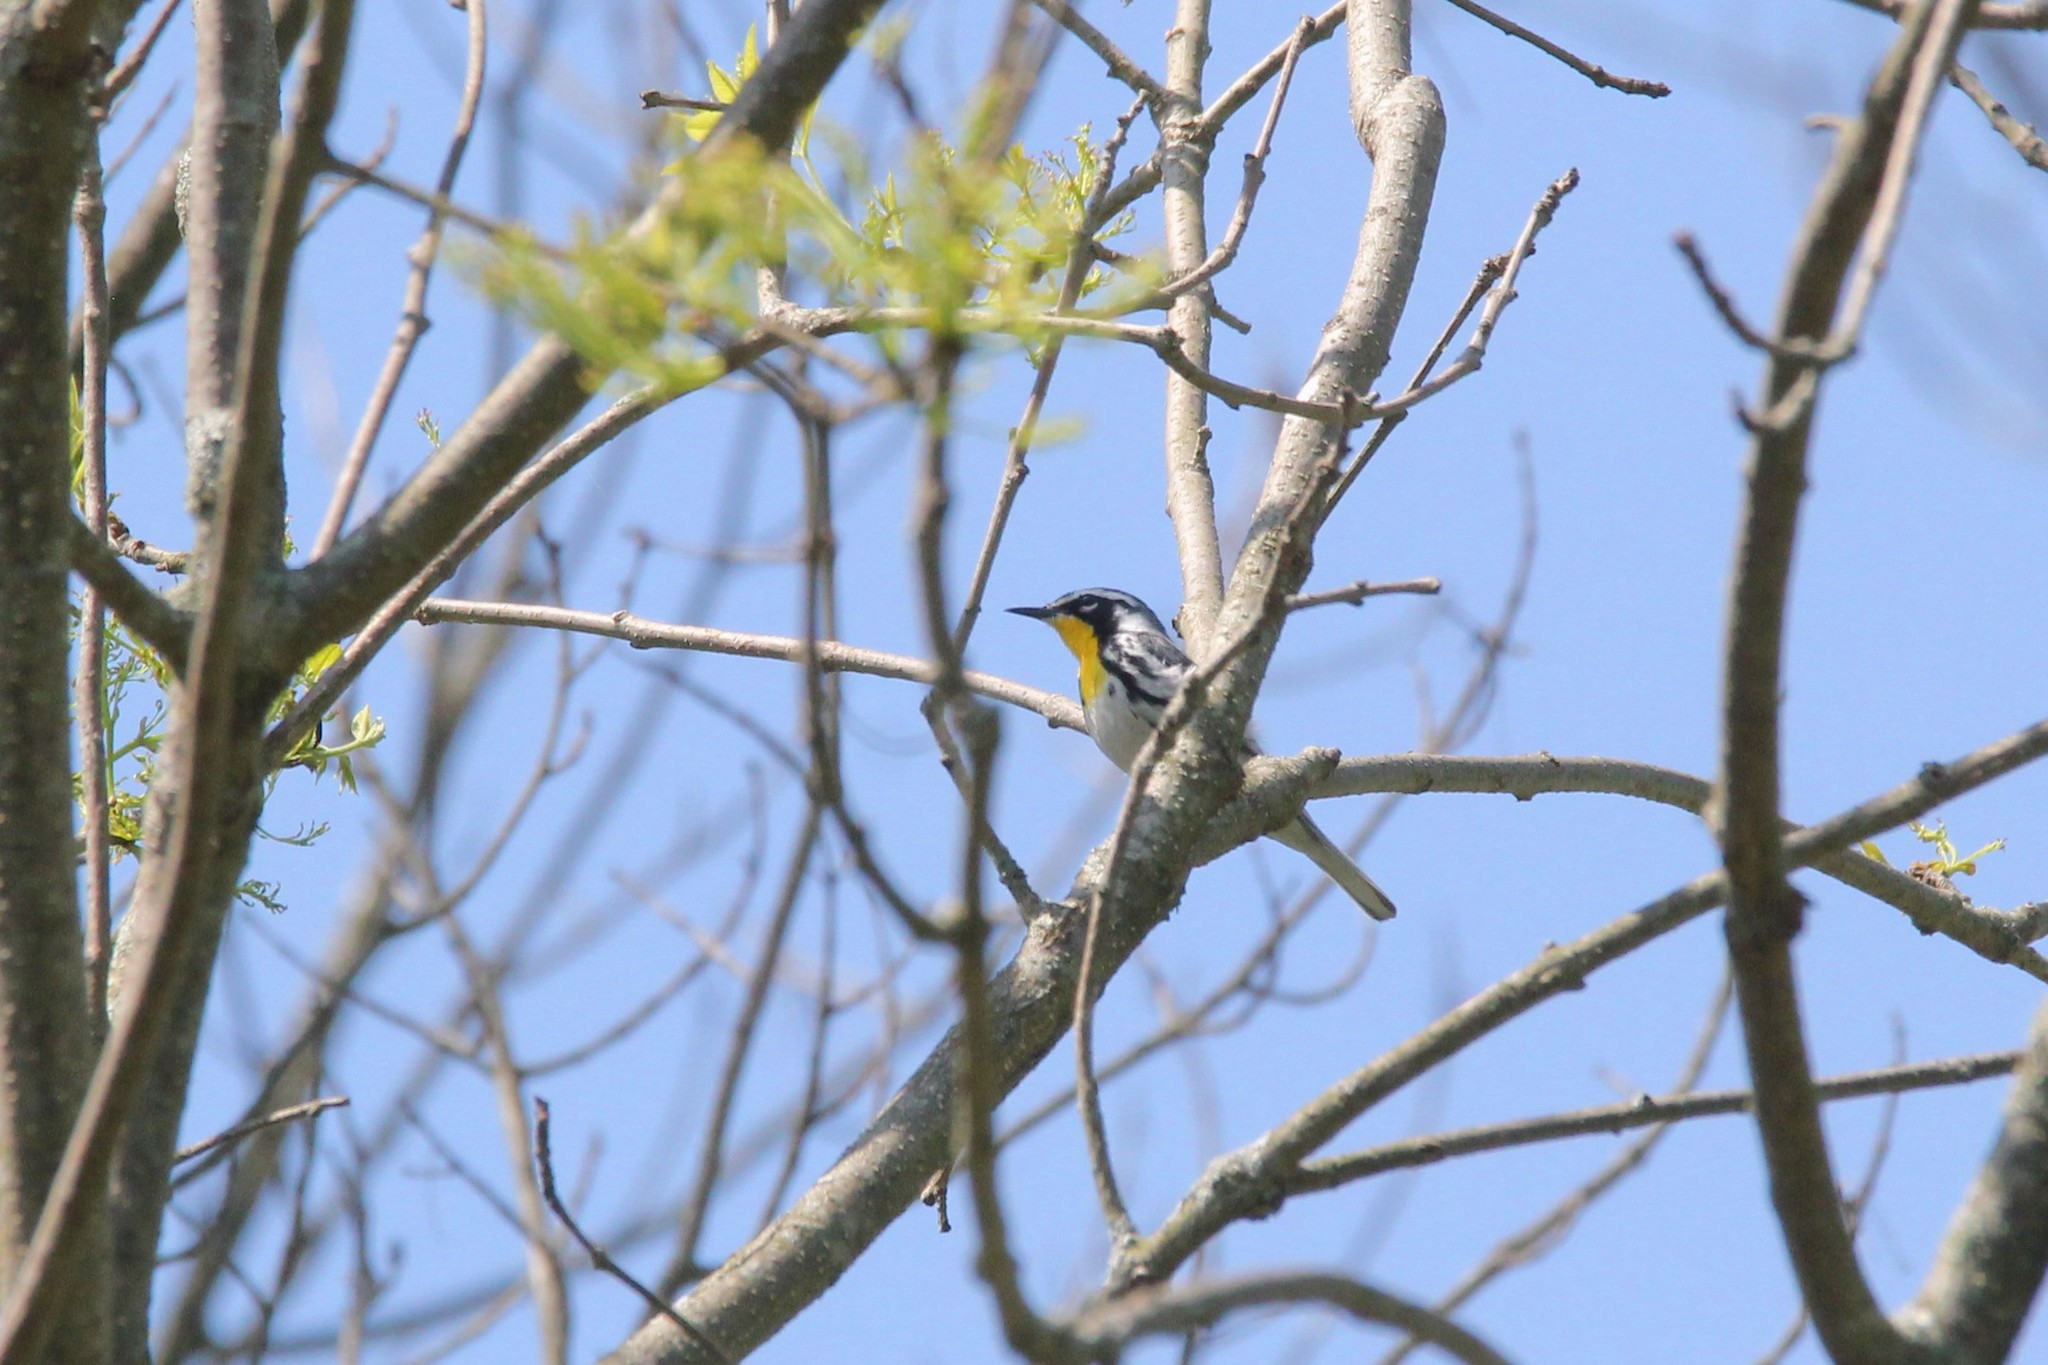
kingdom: Animalia
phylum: Chordata
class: Aves
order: Passeriformes
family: Parulidae
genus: Setophaga
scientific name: Setophaga dominica
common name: Yellow-throated warbler
